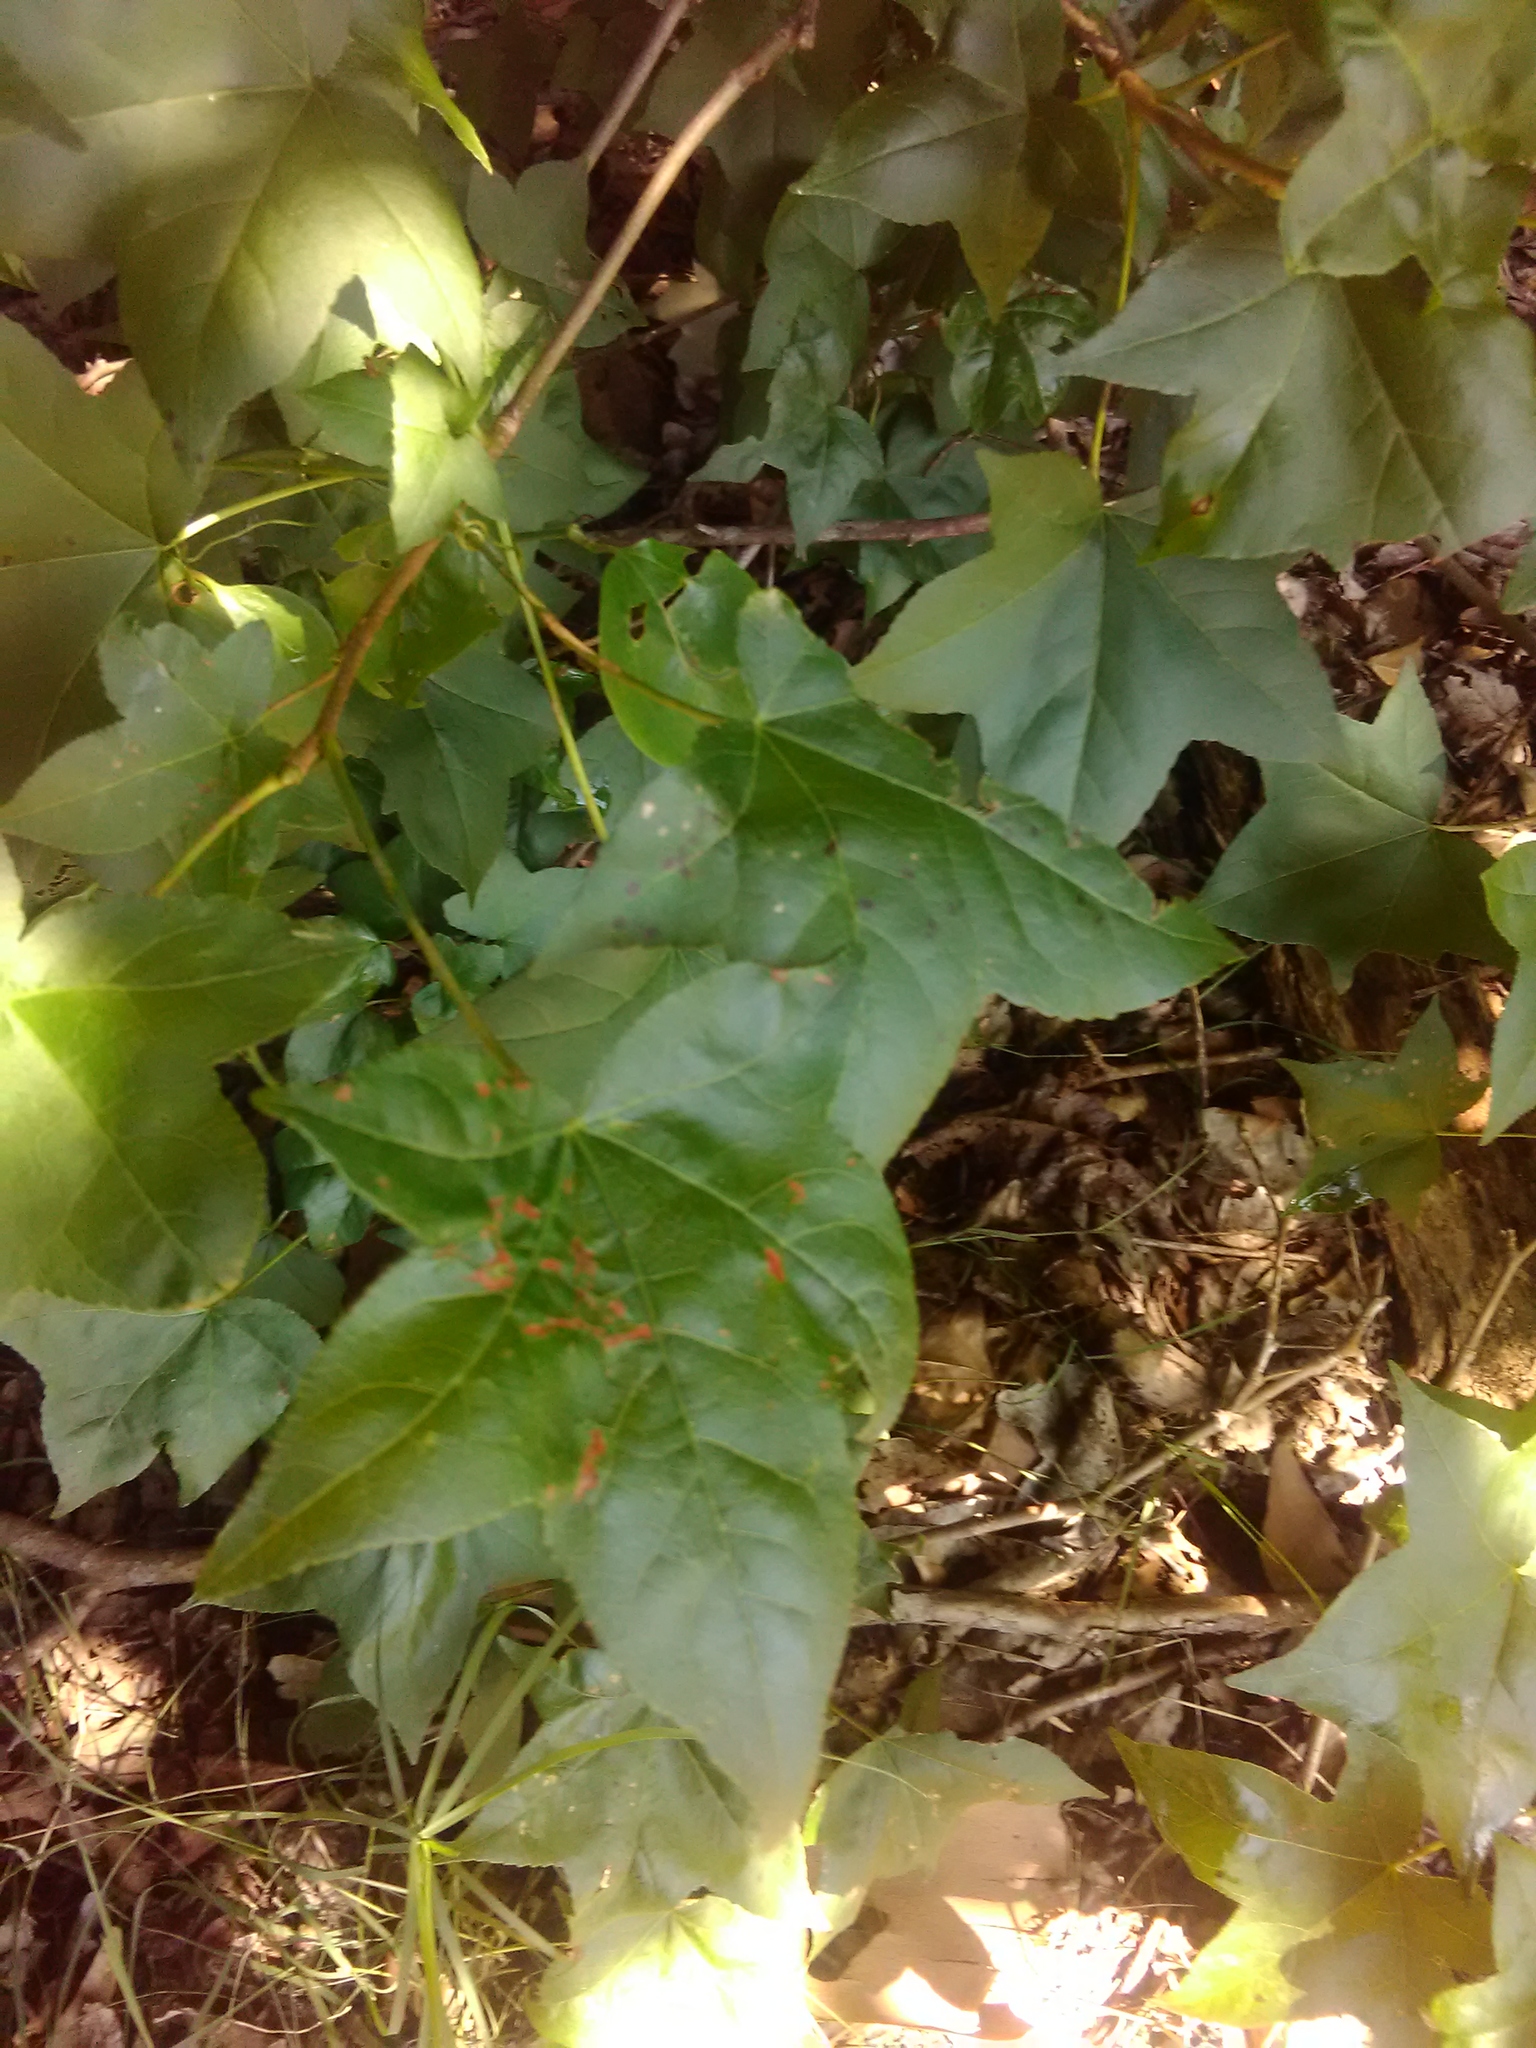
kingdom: Plantae
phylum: Tracheophyta
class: Magnoliopsida
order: Saxifragales
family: Altingiaceae
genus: Liquidambar
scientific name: Liquidambar styraciflua
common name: Sweet gum
